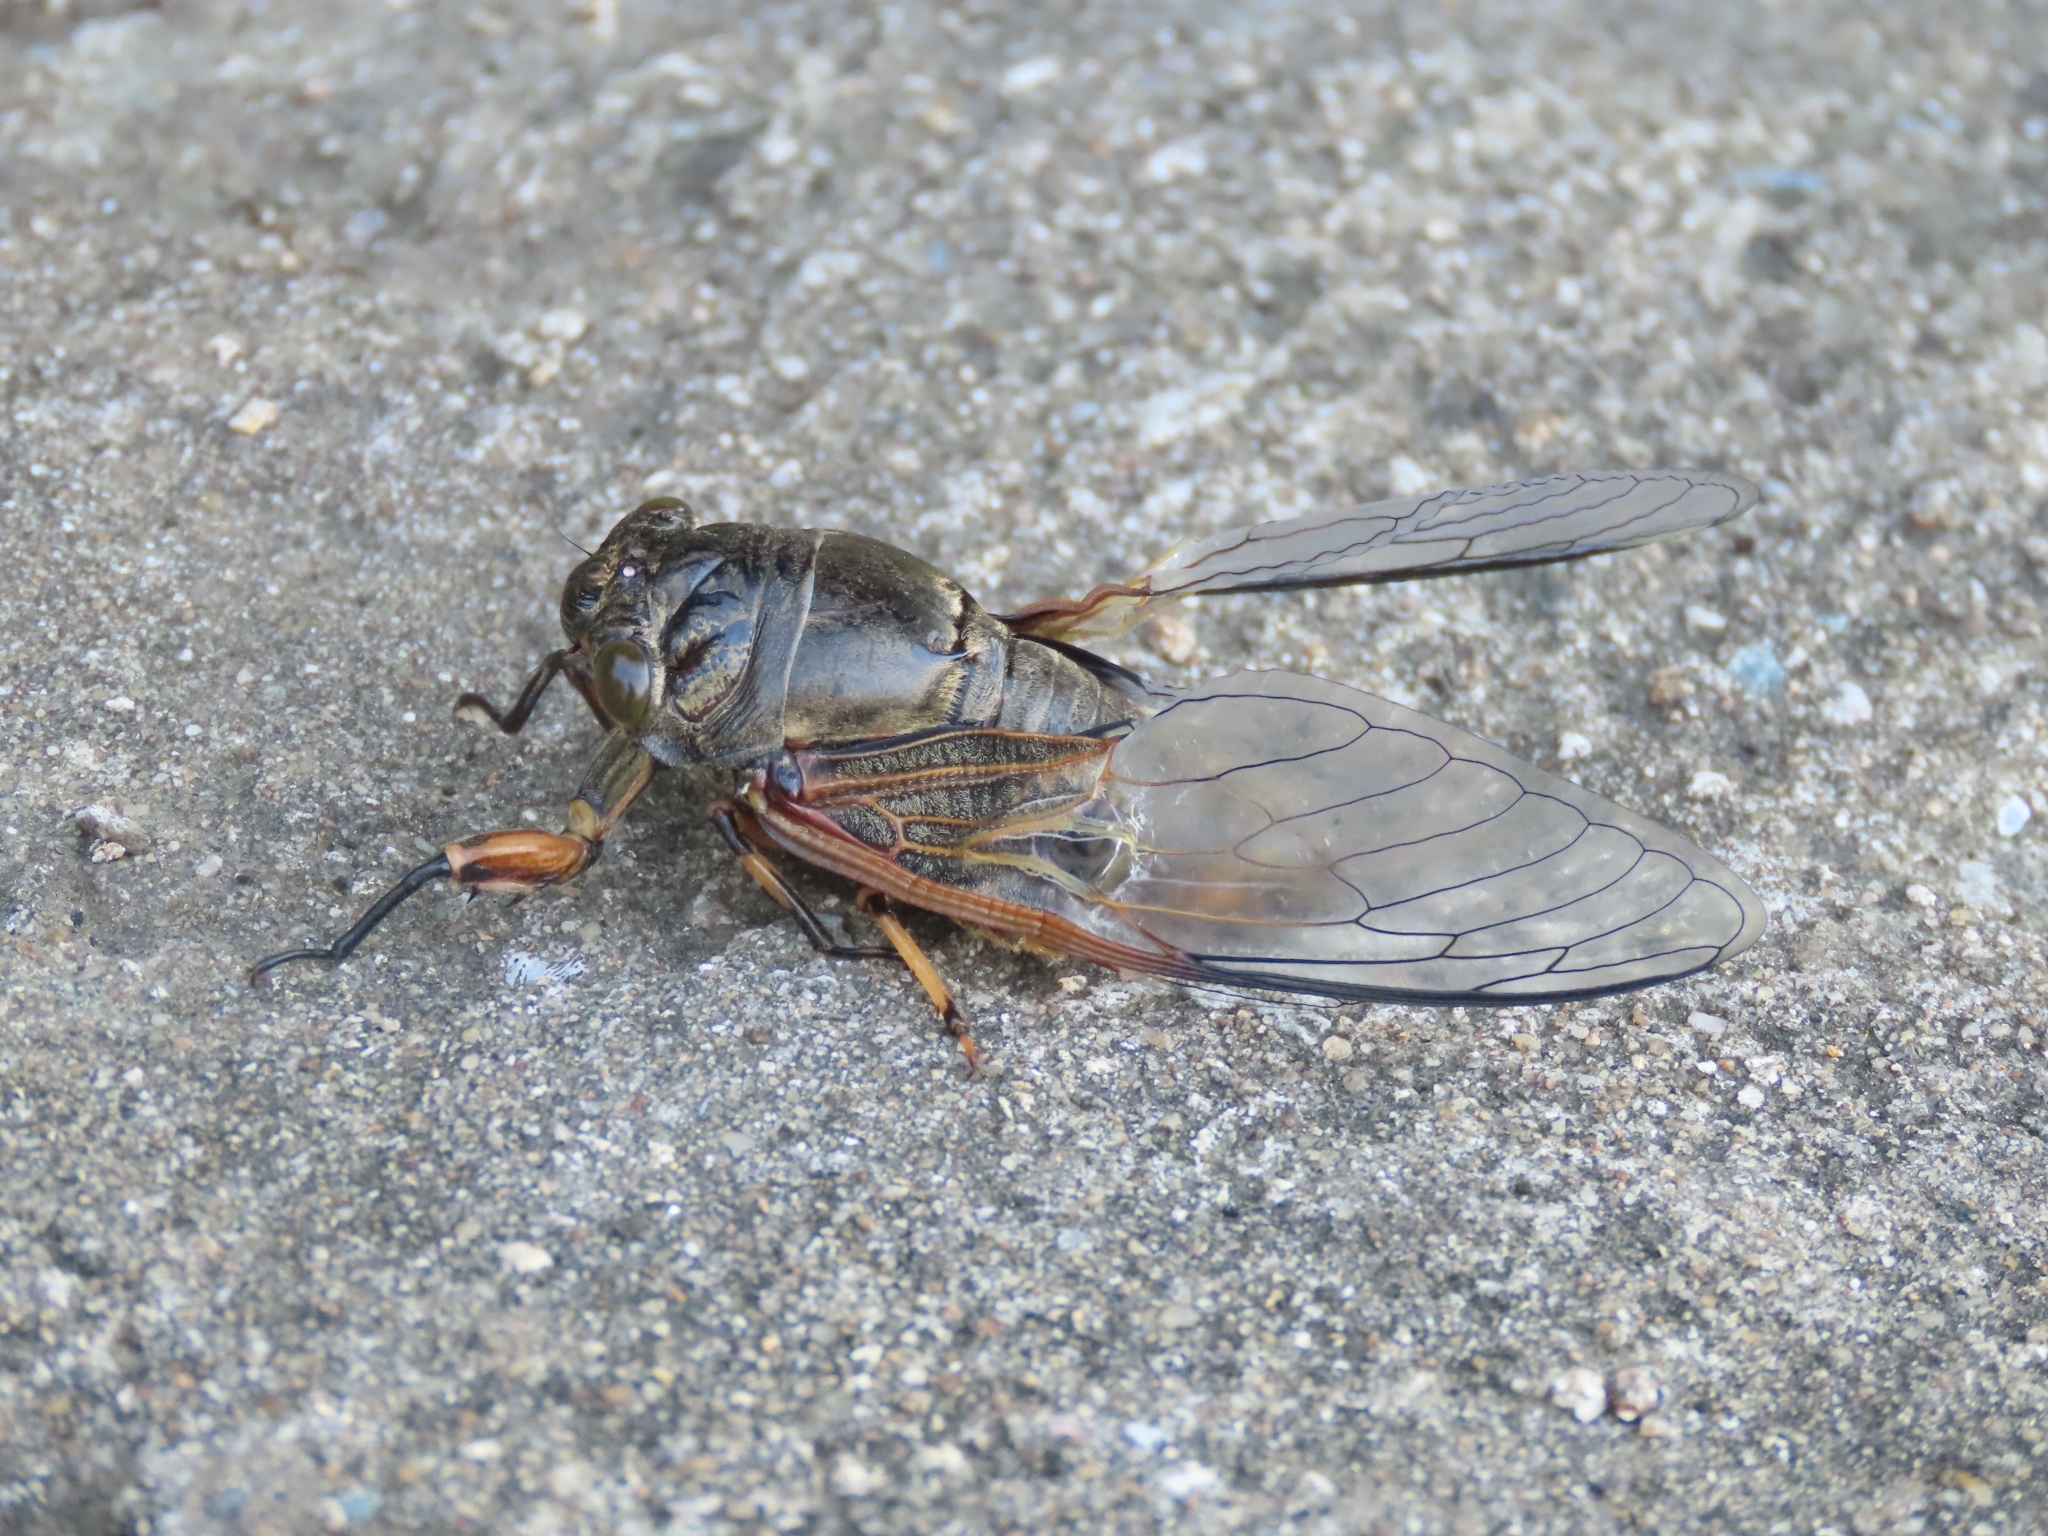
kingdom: Animalia
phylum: Arthropoda
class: Insecta
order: Hemiptera
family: Cicadidae
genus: Cryptotympana
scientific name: Cryptotympana atrata
